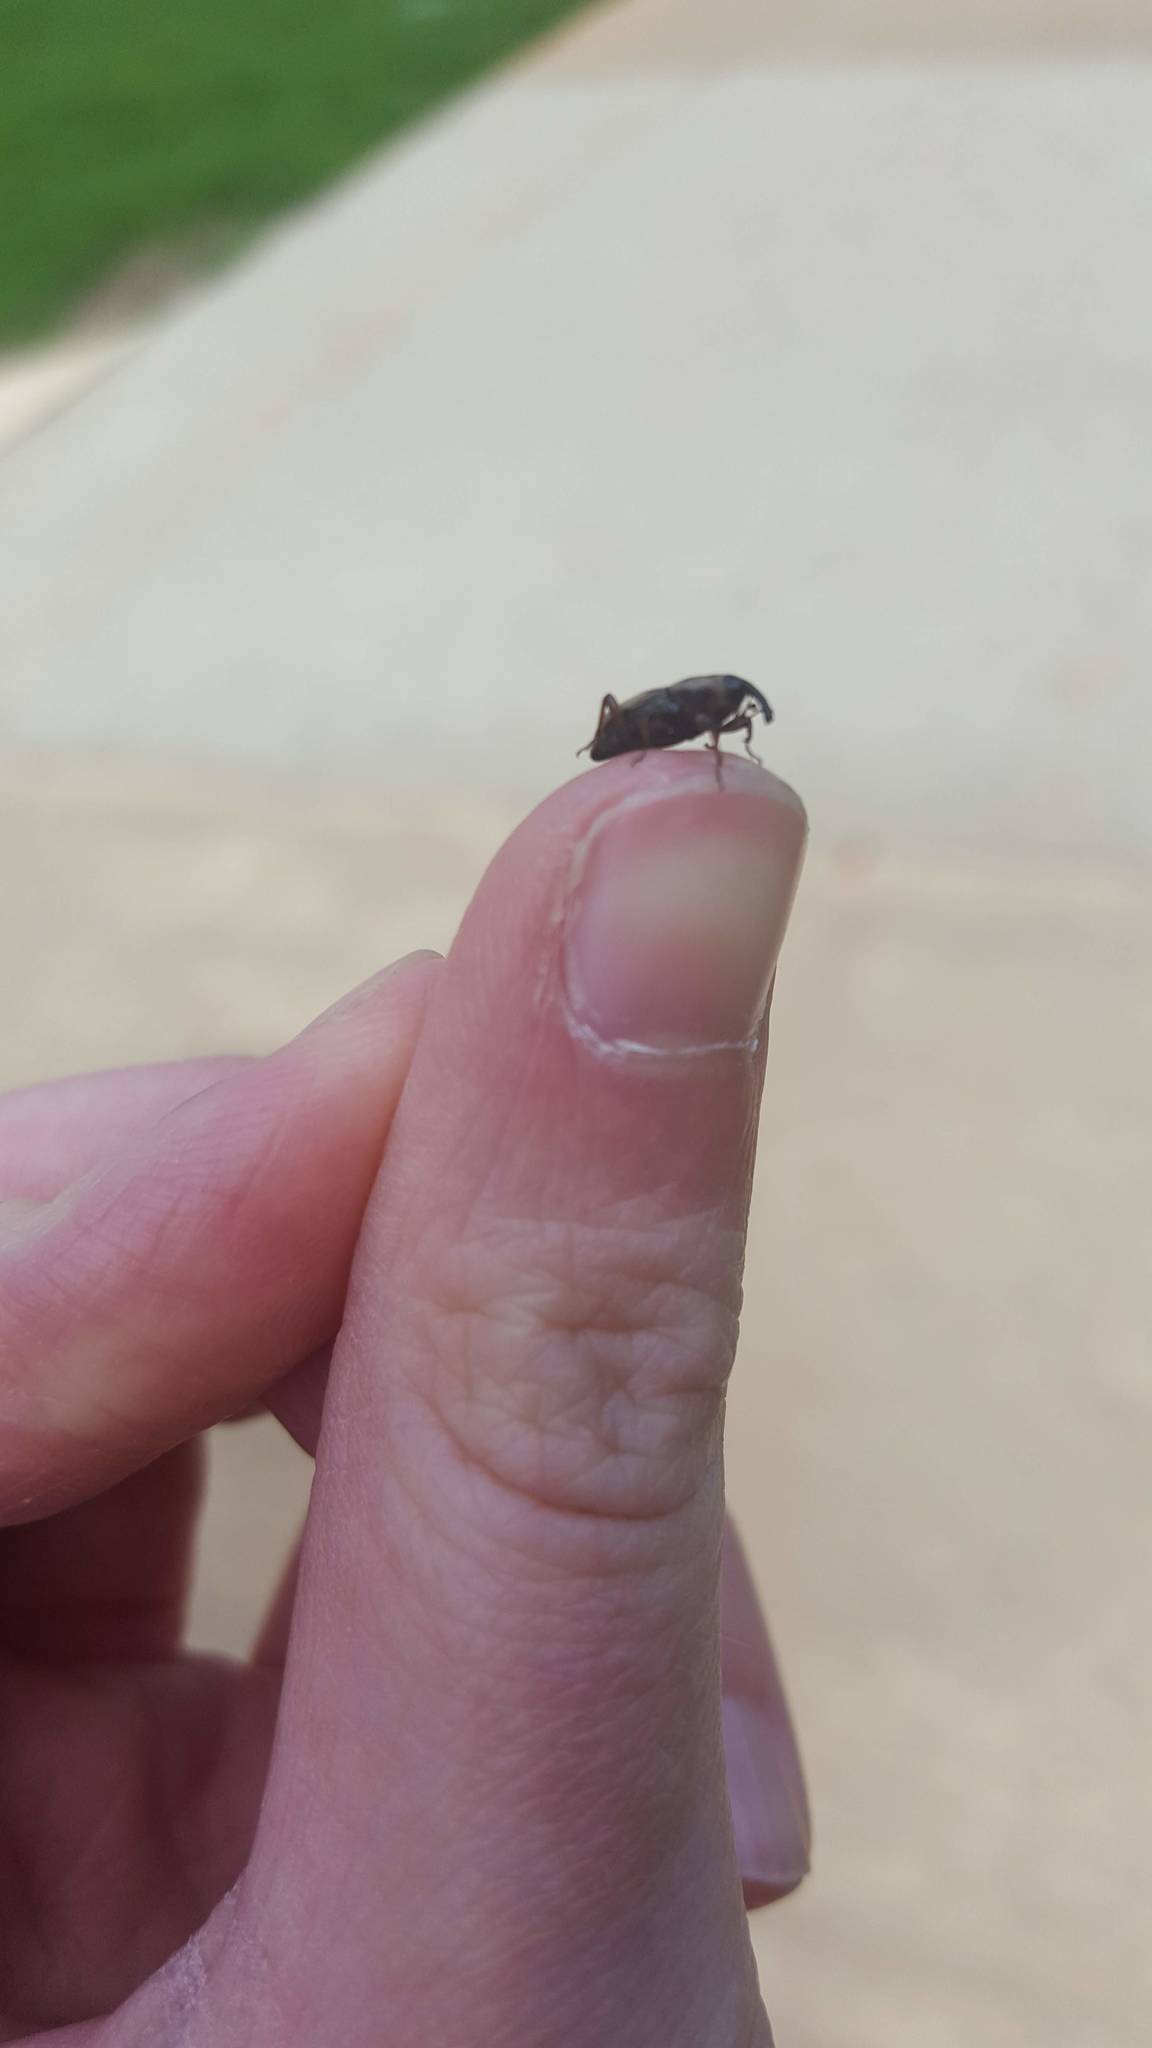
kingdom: Animalia
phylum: Arthropoda
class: Insecta
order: Coleoptera
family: Dryophthoridae
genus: Sphenophorus
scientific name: Sphenophorus
